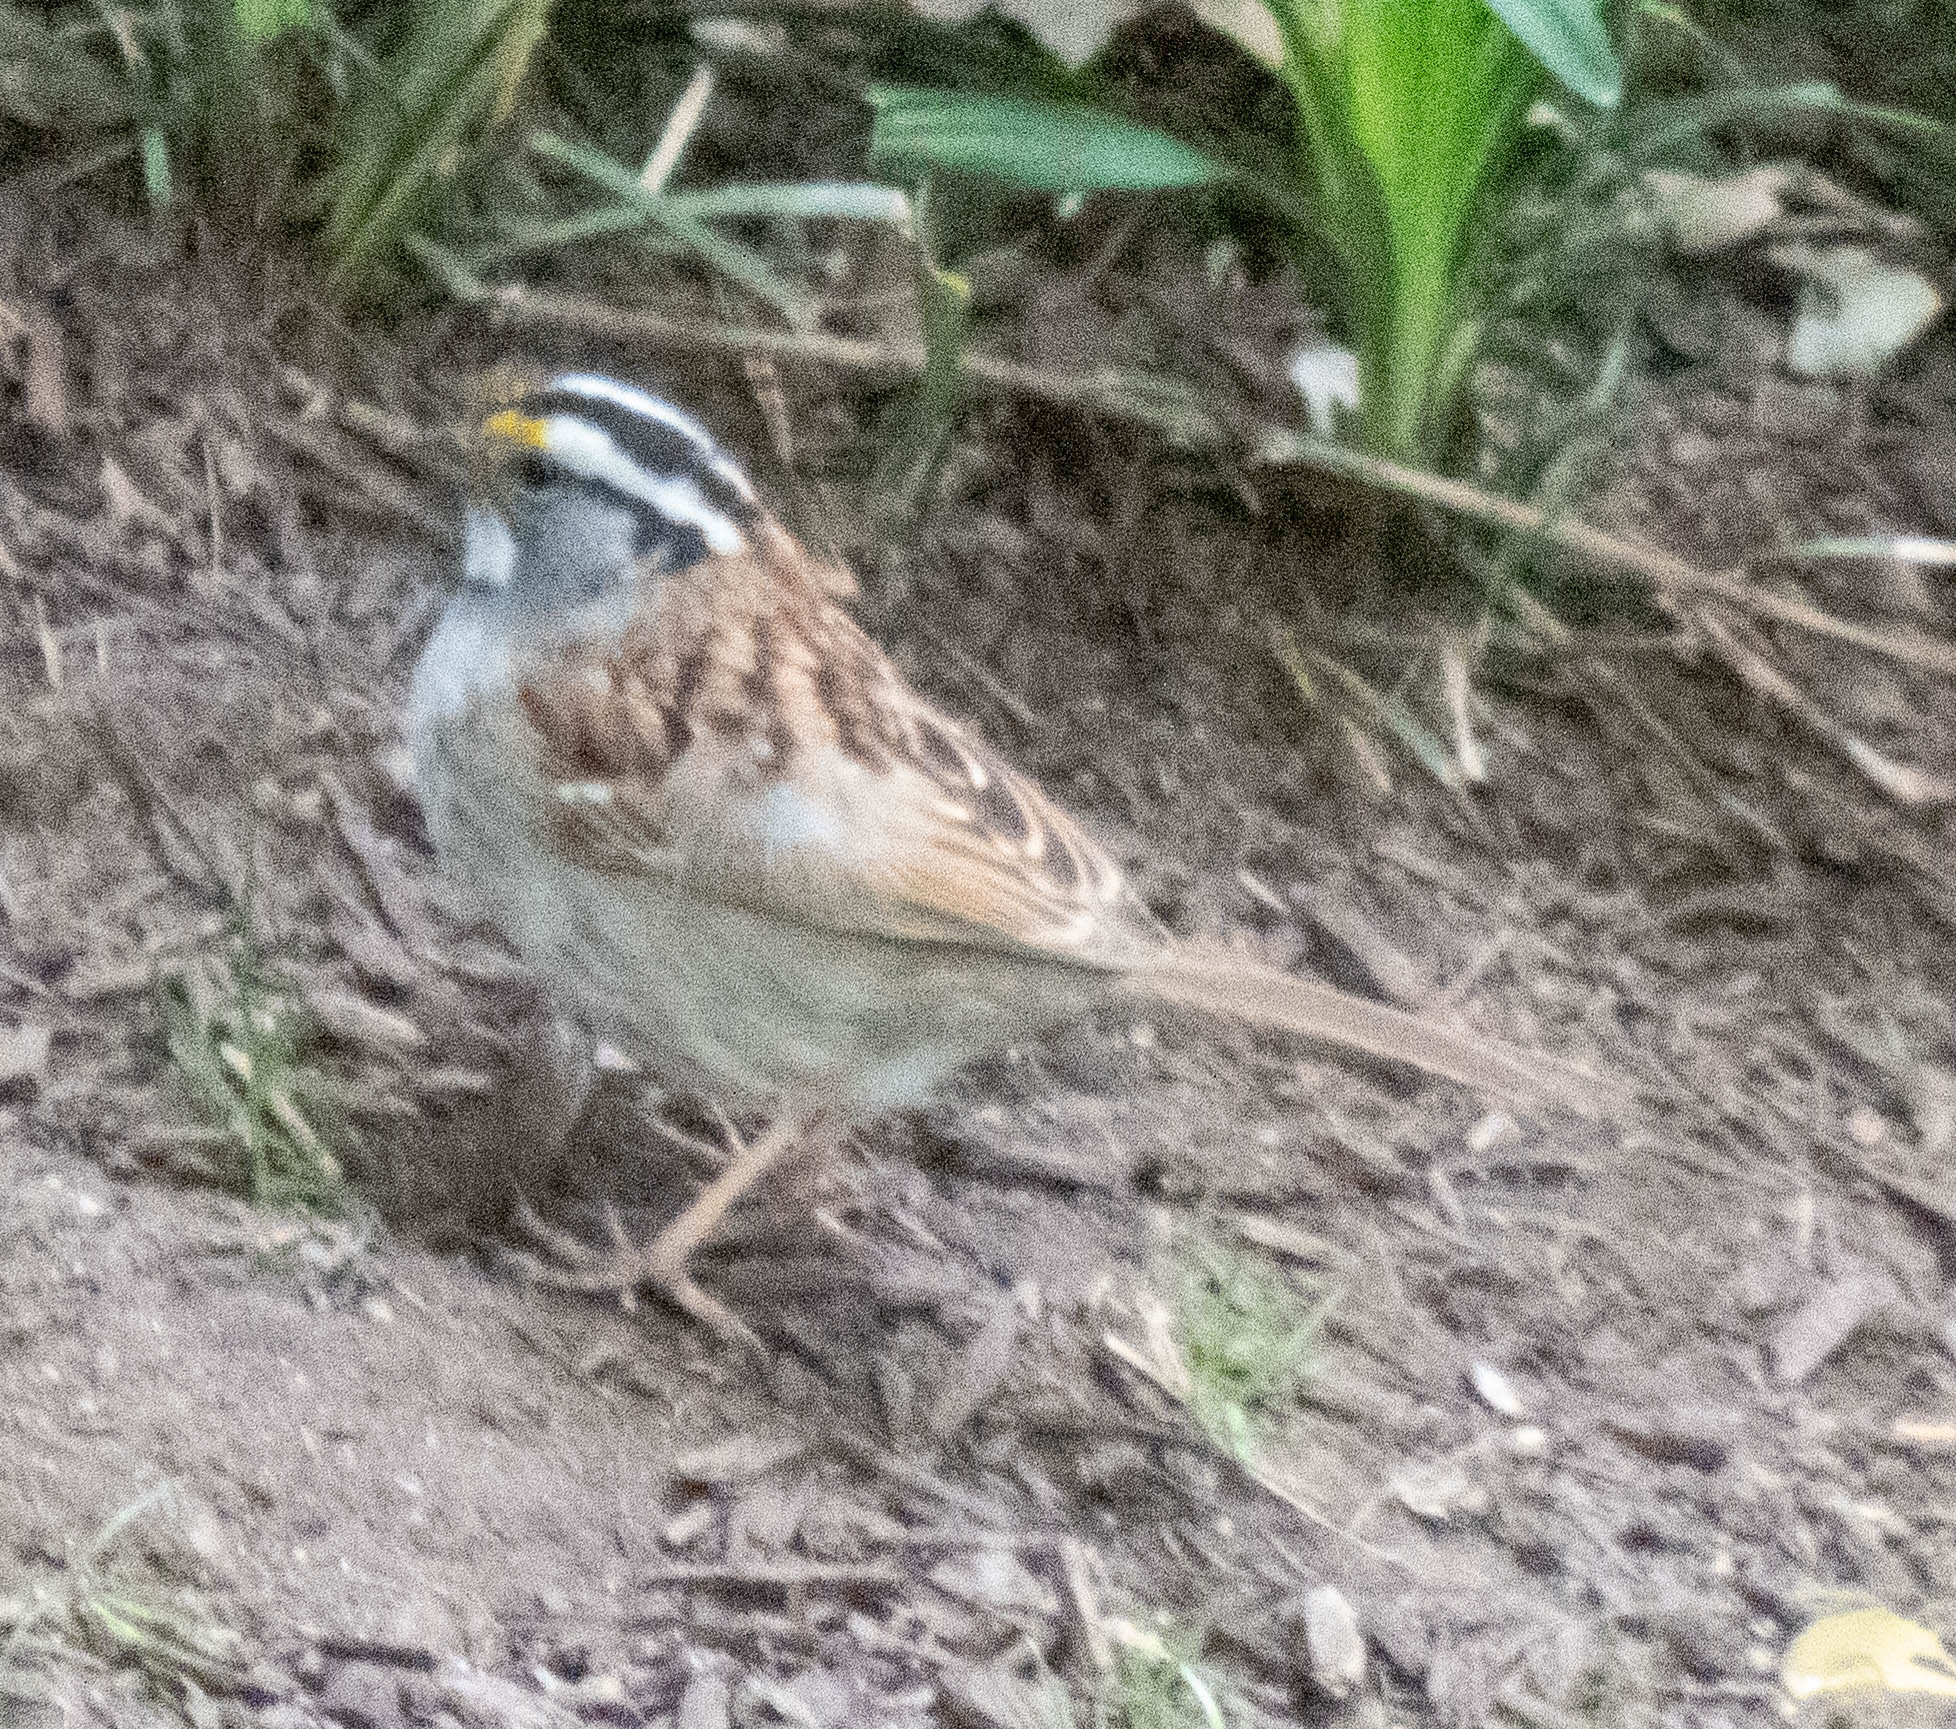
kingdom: Animalia
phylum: Chordata
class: Aves
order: Passeriformes
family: Passerellidae
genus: Zonotrichia
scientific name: Zonotrichia albicollis
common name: White-throated sparrow
